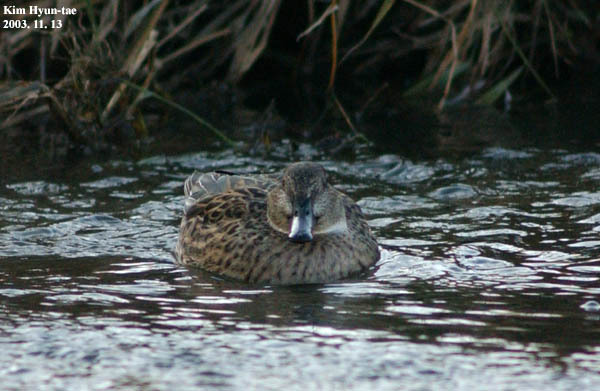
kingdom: Animalia
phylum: Chordata
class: Aves
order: Anseriformes
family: Anatidae
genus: Anas
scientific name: Anas crecca
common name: Eurasian teal
